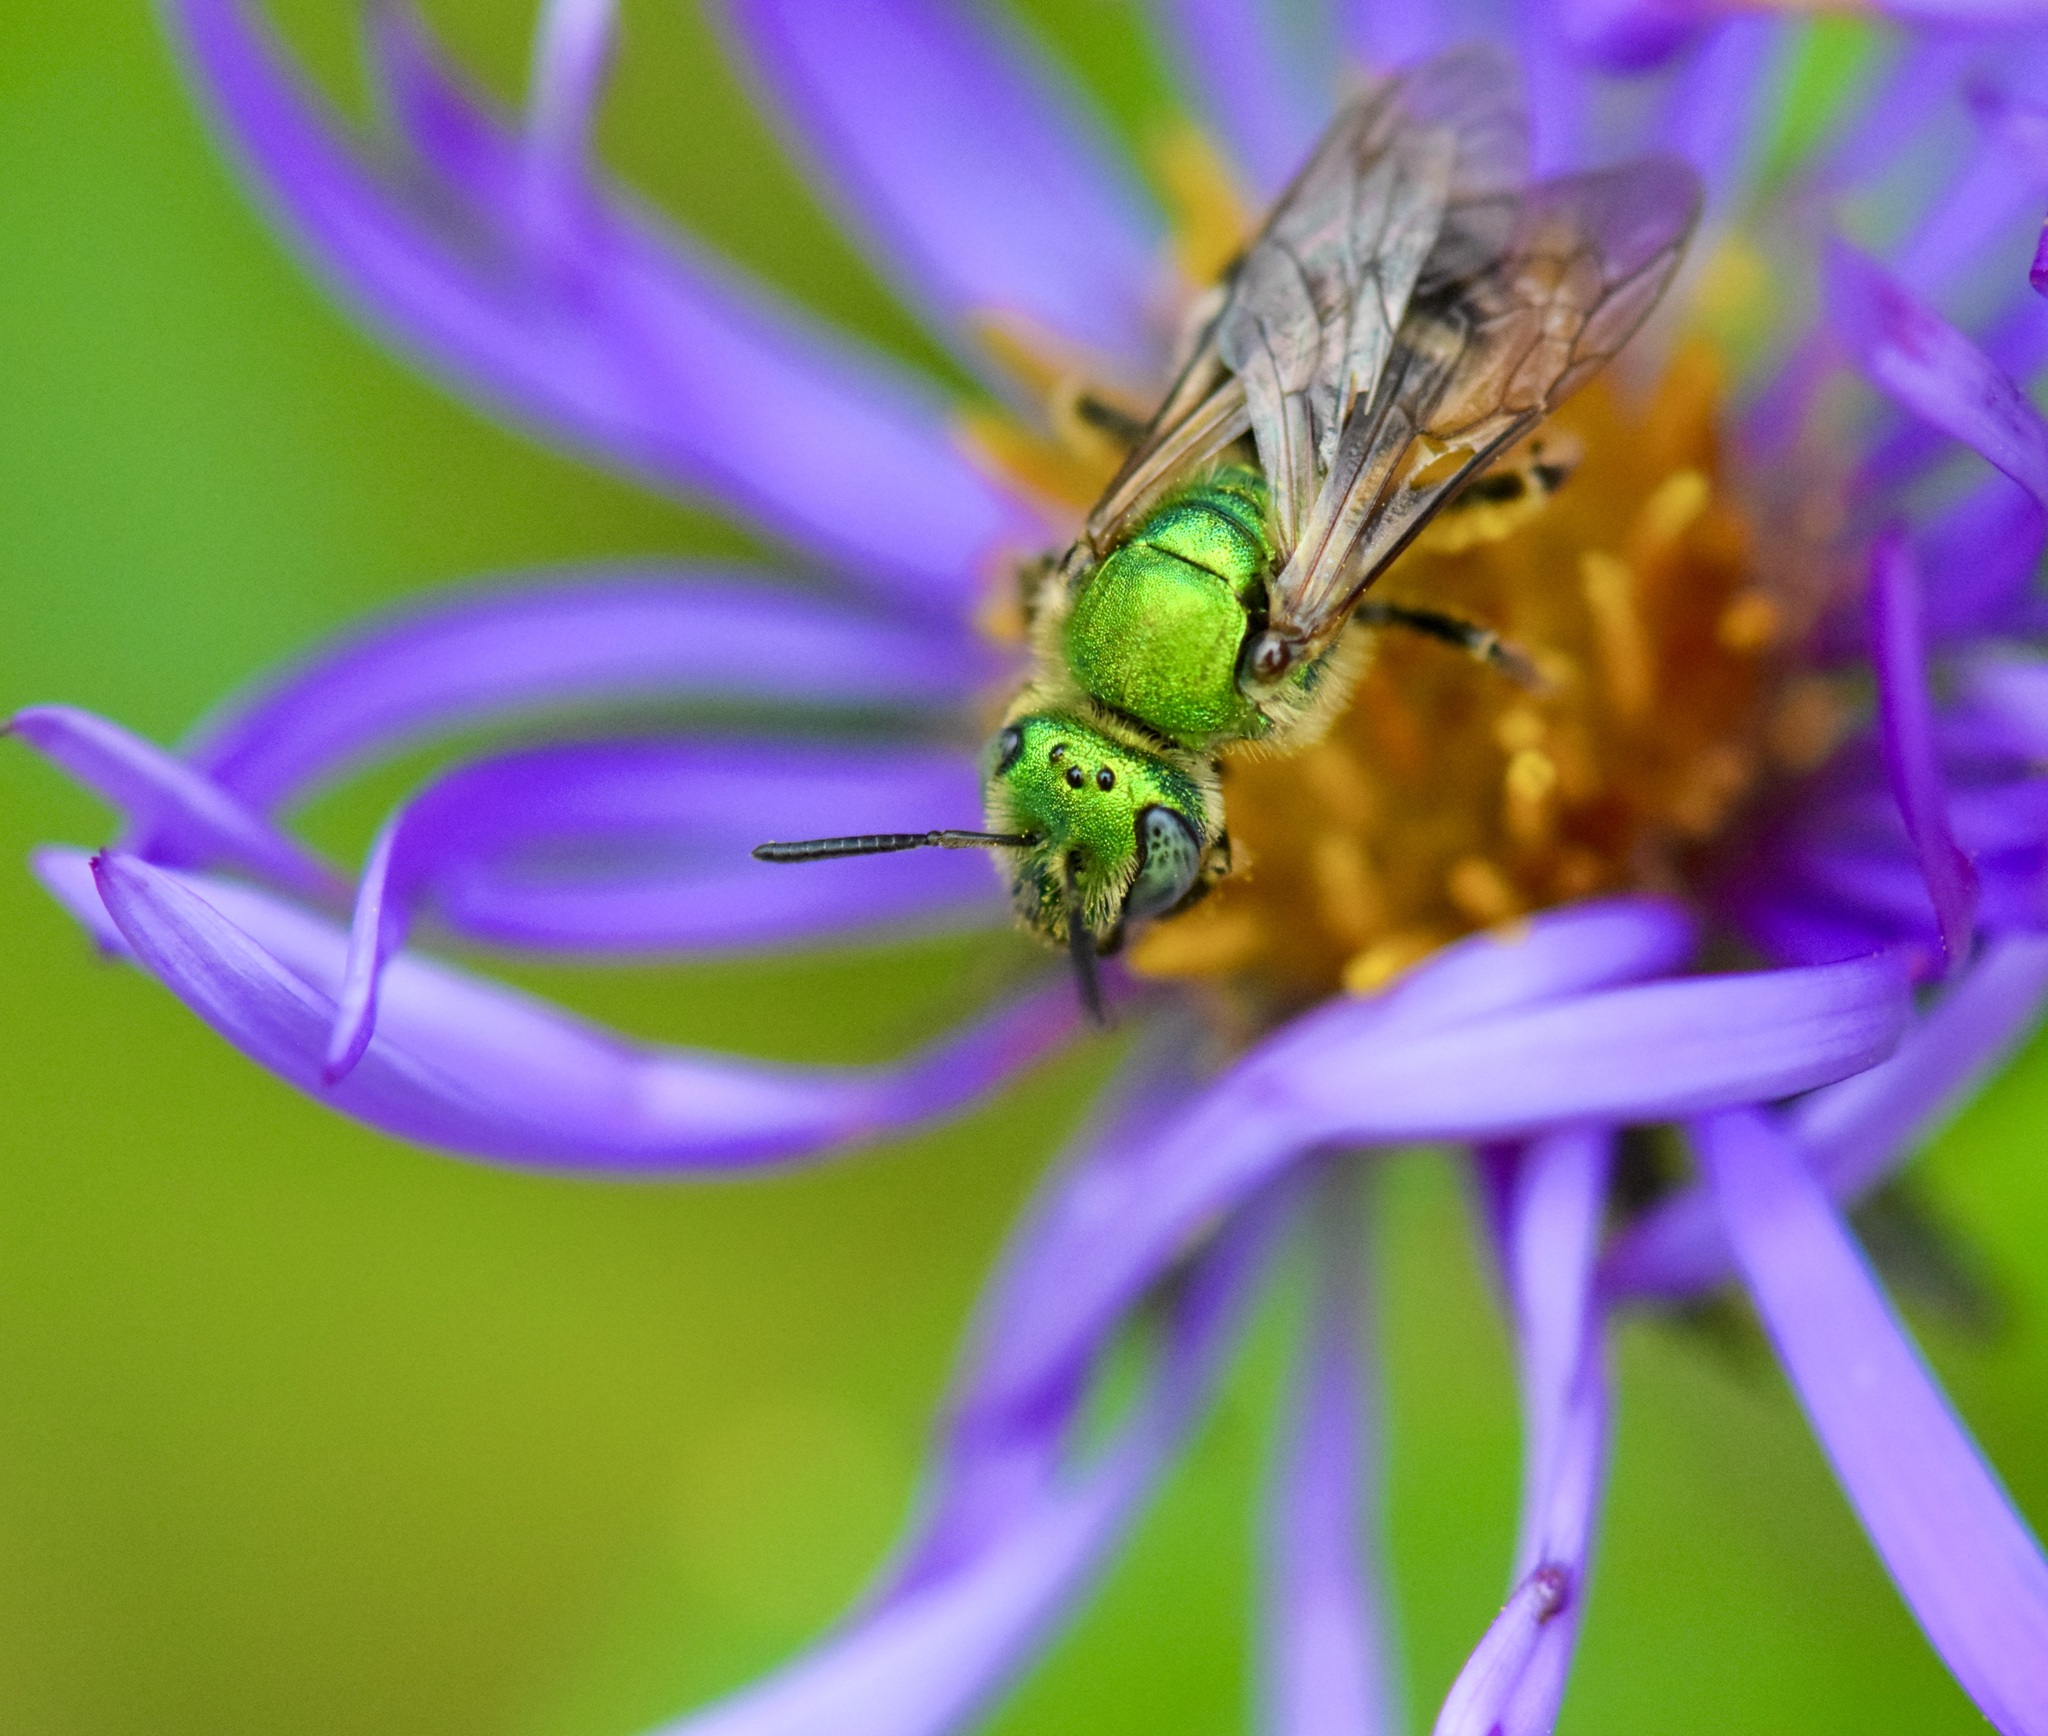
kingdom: Animalia
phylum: Arthropoda
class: Insecta
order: Hymenoptera
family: Halictidae
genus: Agapostemon
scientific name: Agapostemon virescens
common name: Bicolored striped sweat bee
